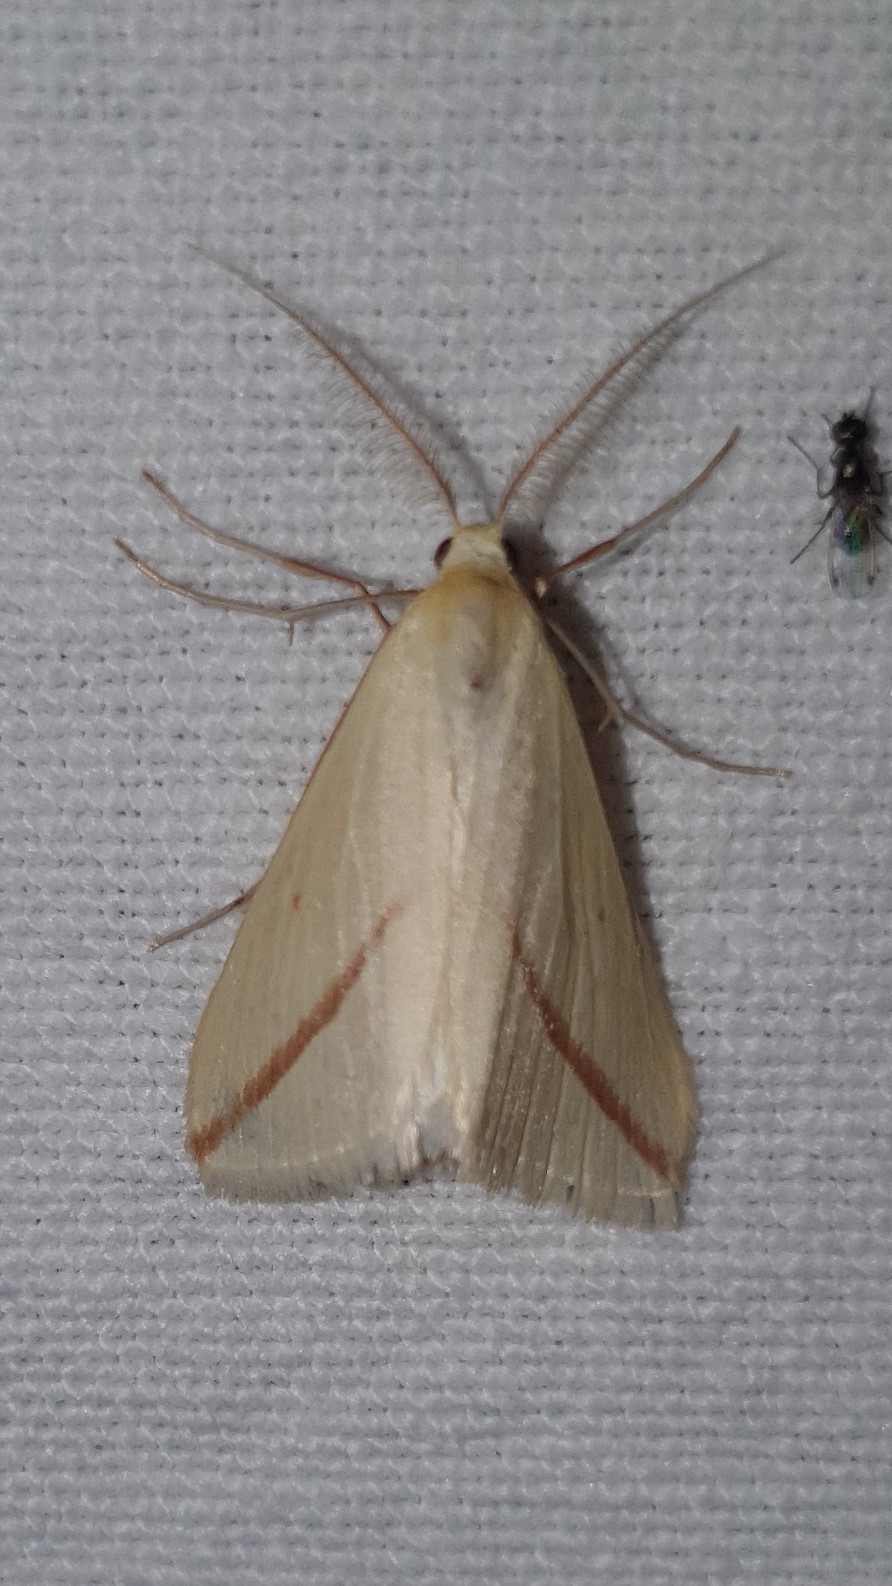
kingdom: Animalia
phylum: Arthropoda
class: Insecta
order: Lepidoptera
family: Geometridae
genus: Rhodometra
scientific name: Rhodometra sacraria
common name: Vestal
